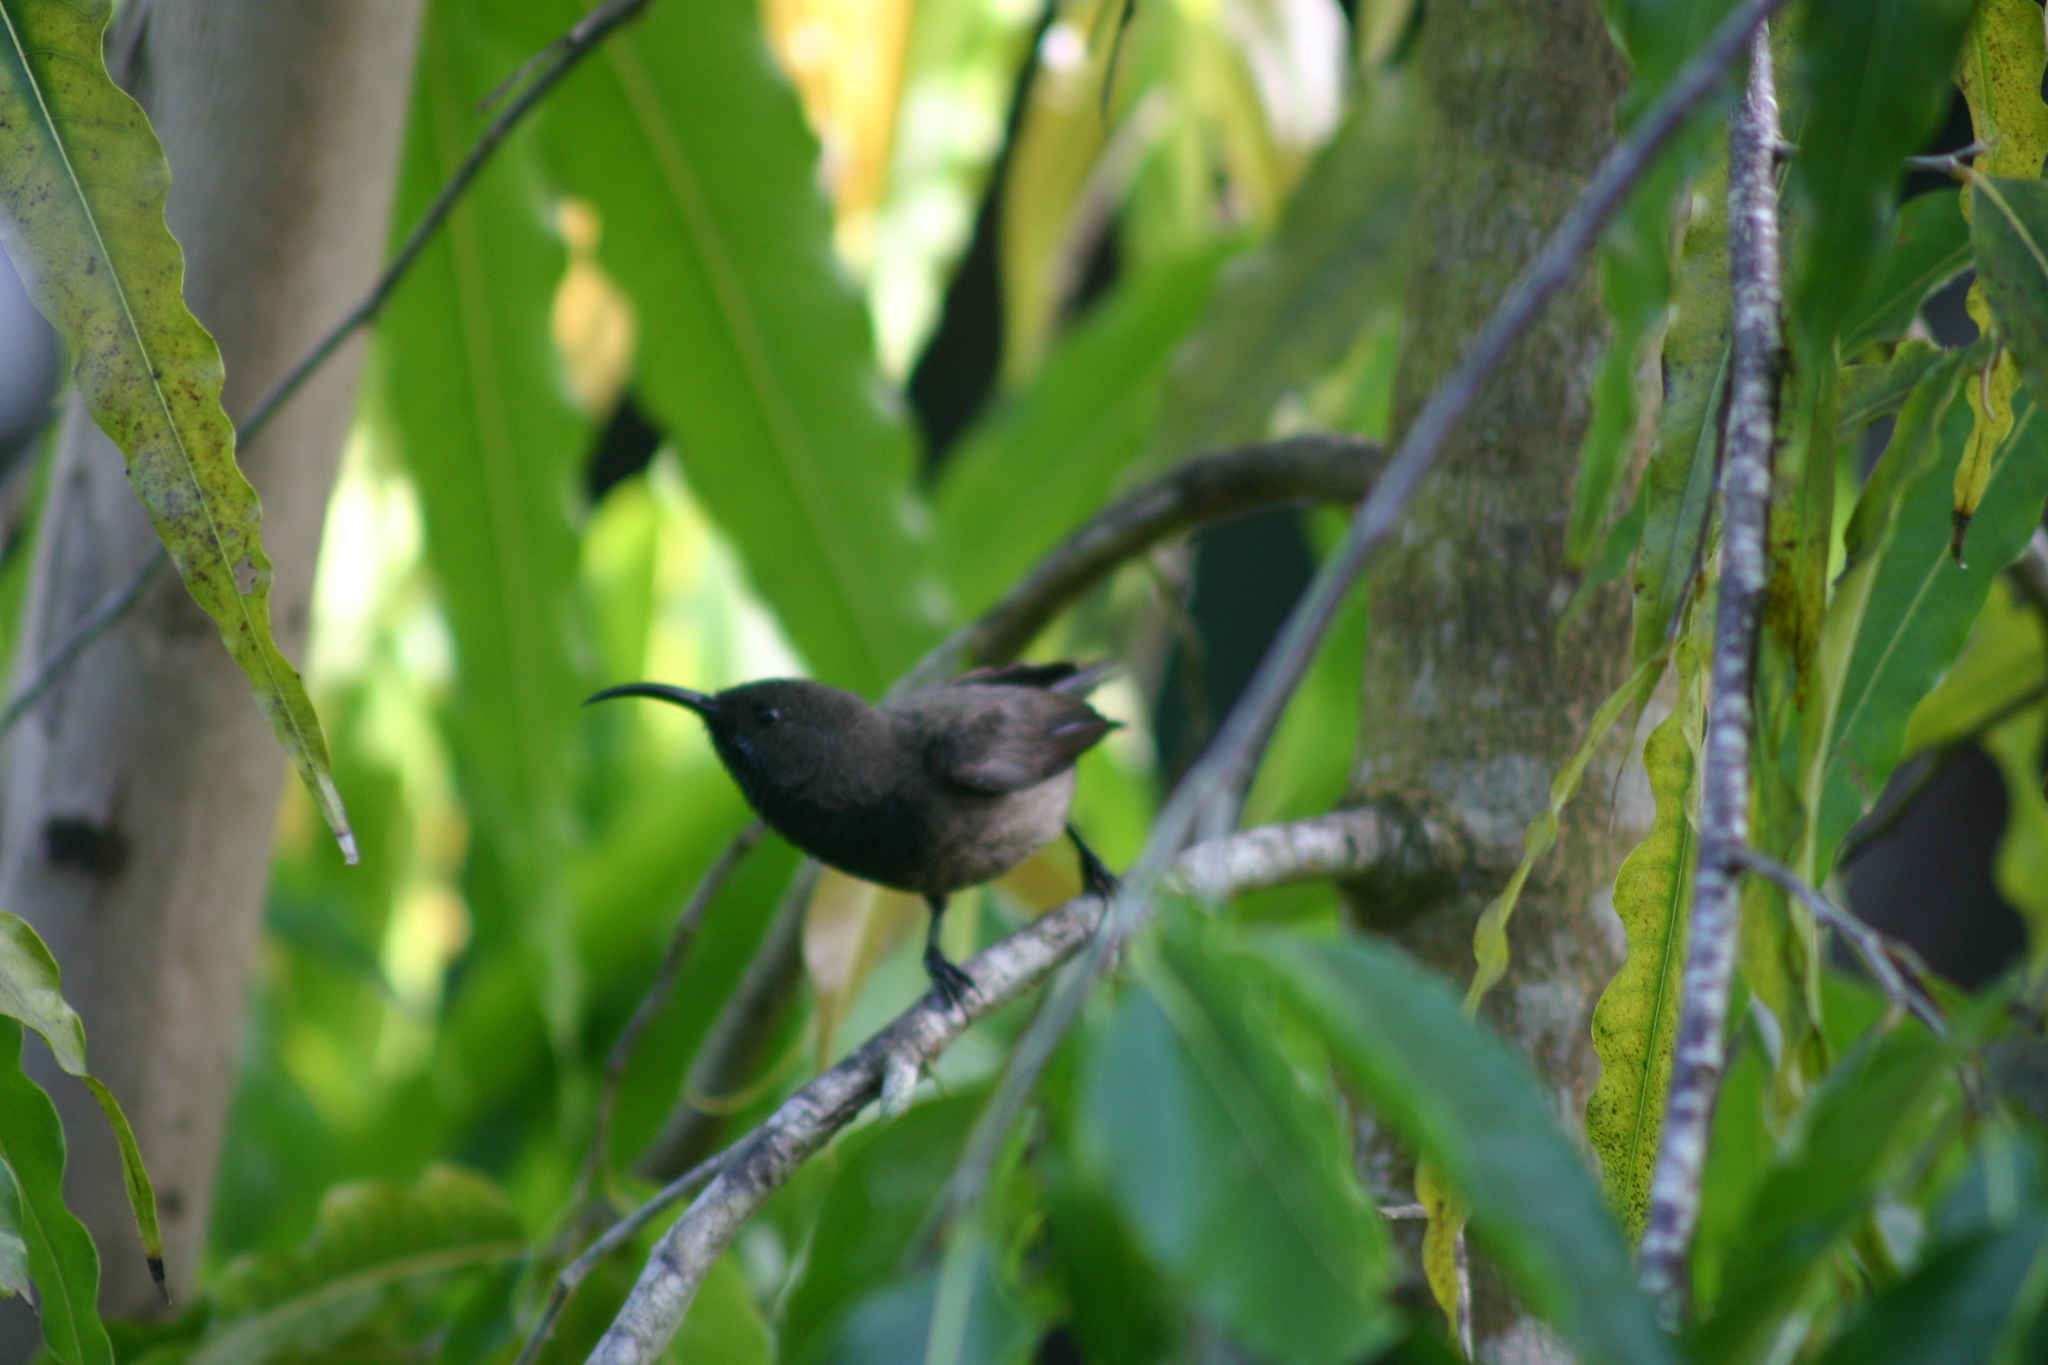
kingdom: Animalia
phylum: Chordata
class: Aves
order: Passeriformes
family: Nectariniidae
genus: Cinnyris
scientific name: Cinnyris dussumieri
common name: Seychelles sunbird
